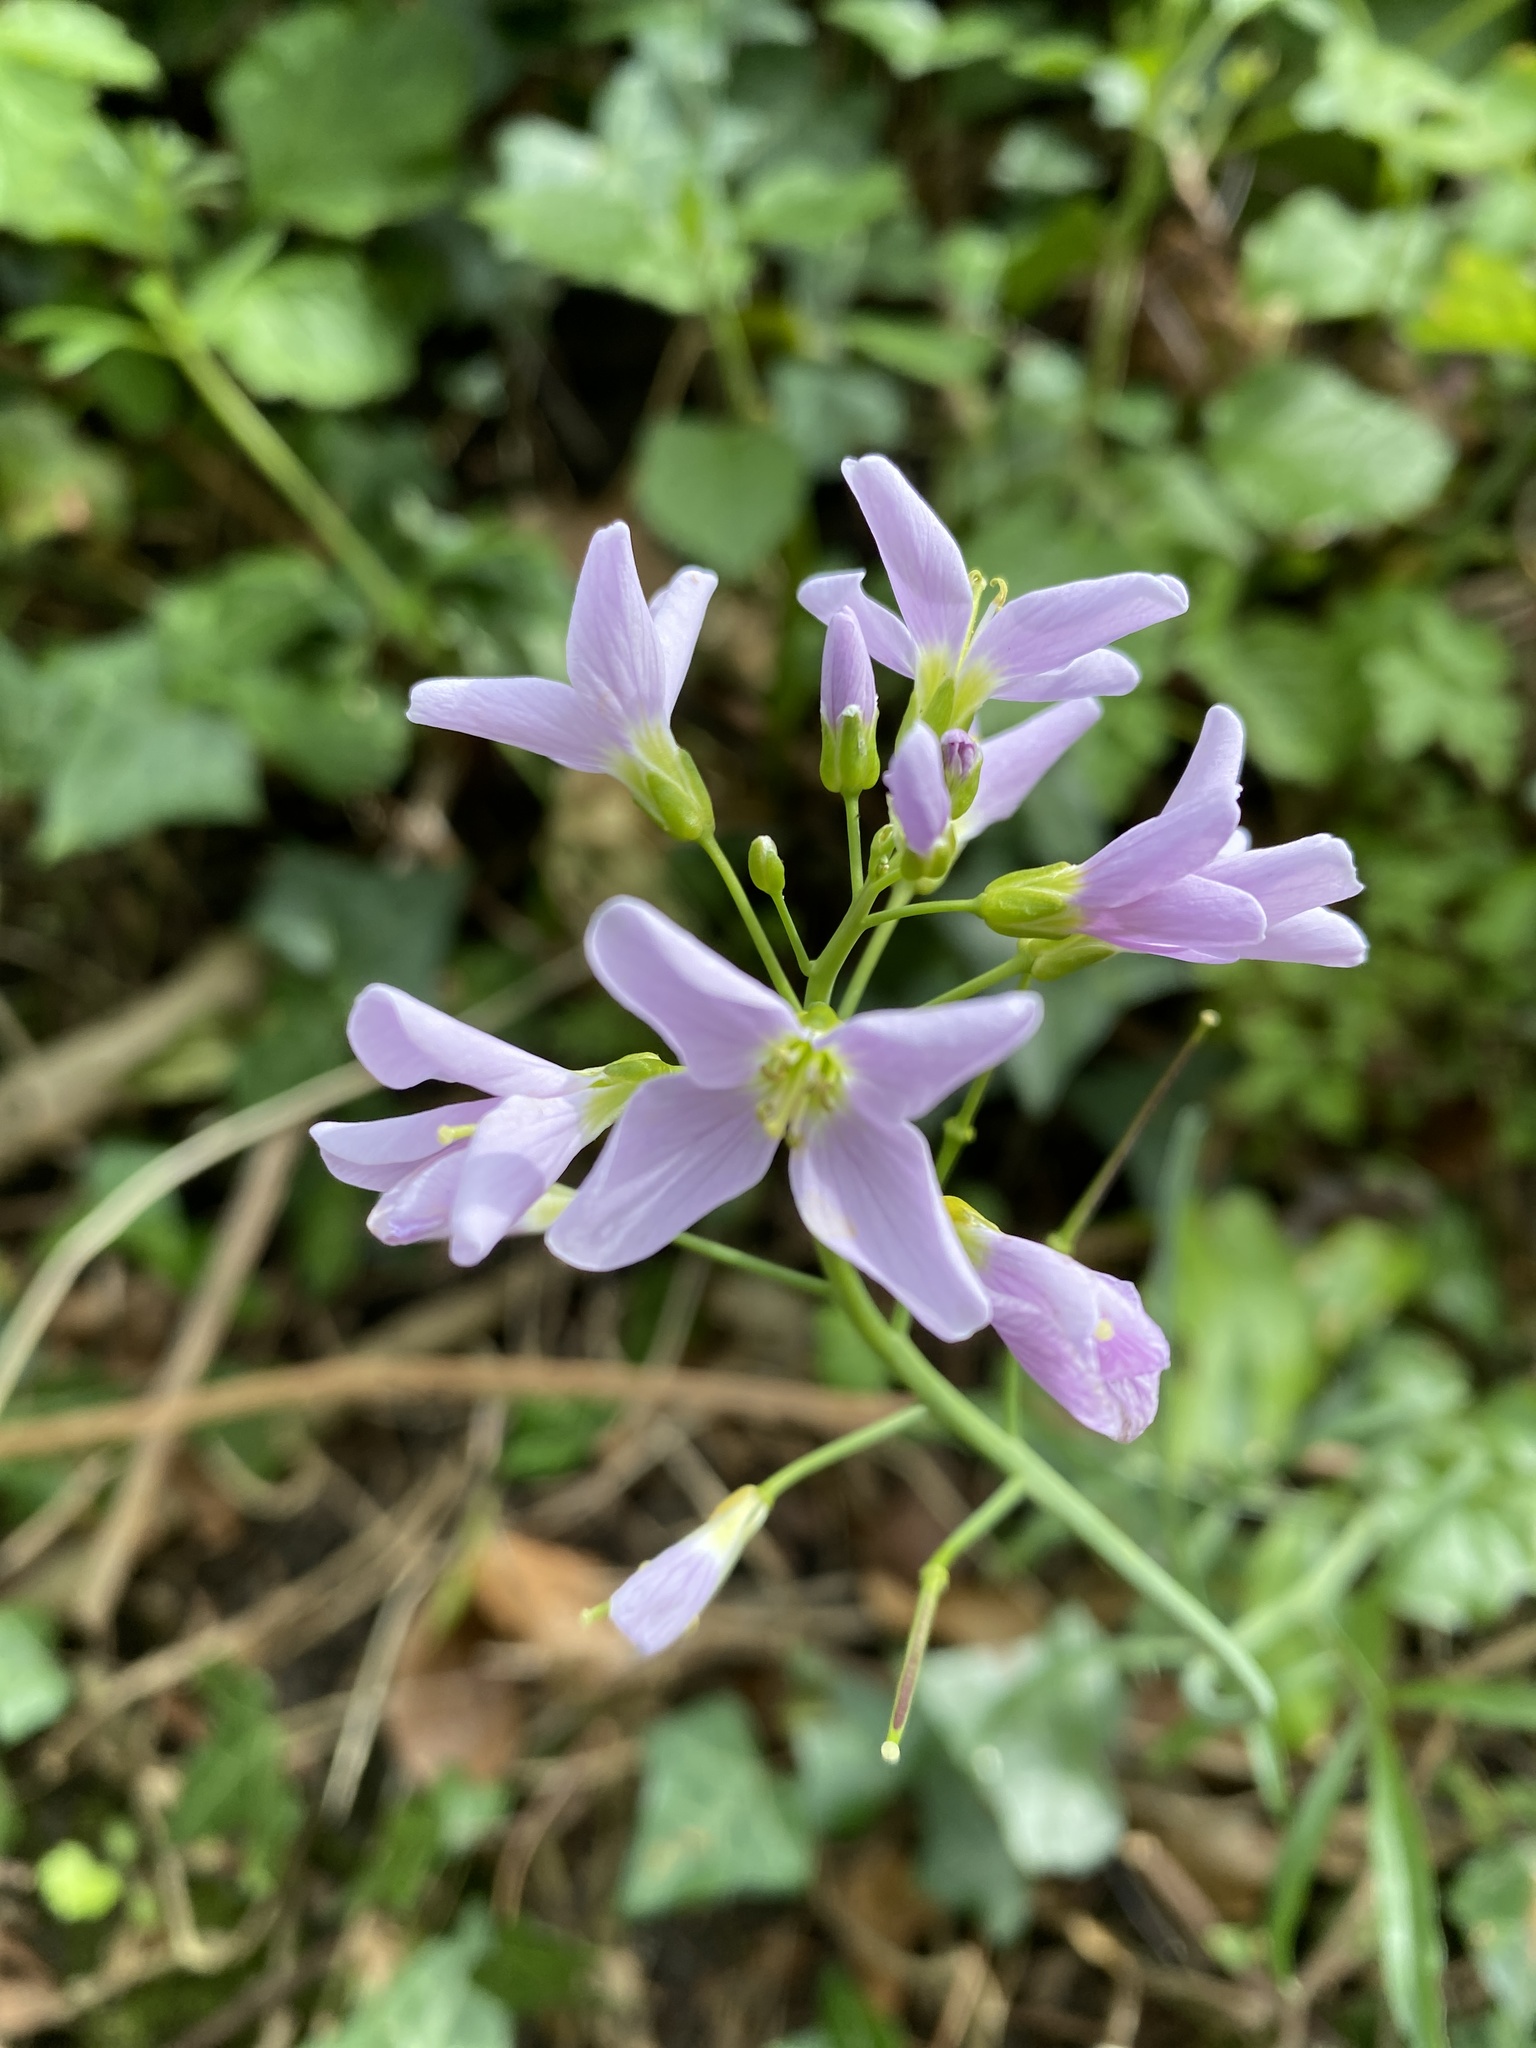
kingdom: Plantae
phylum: Tracheophyta
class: Magnoliopsida
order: Brassicales
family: Brassicaceae
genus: Cardamine
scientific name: Cardamine pratensis
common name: Cuckoo flower
